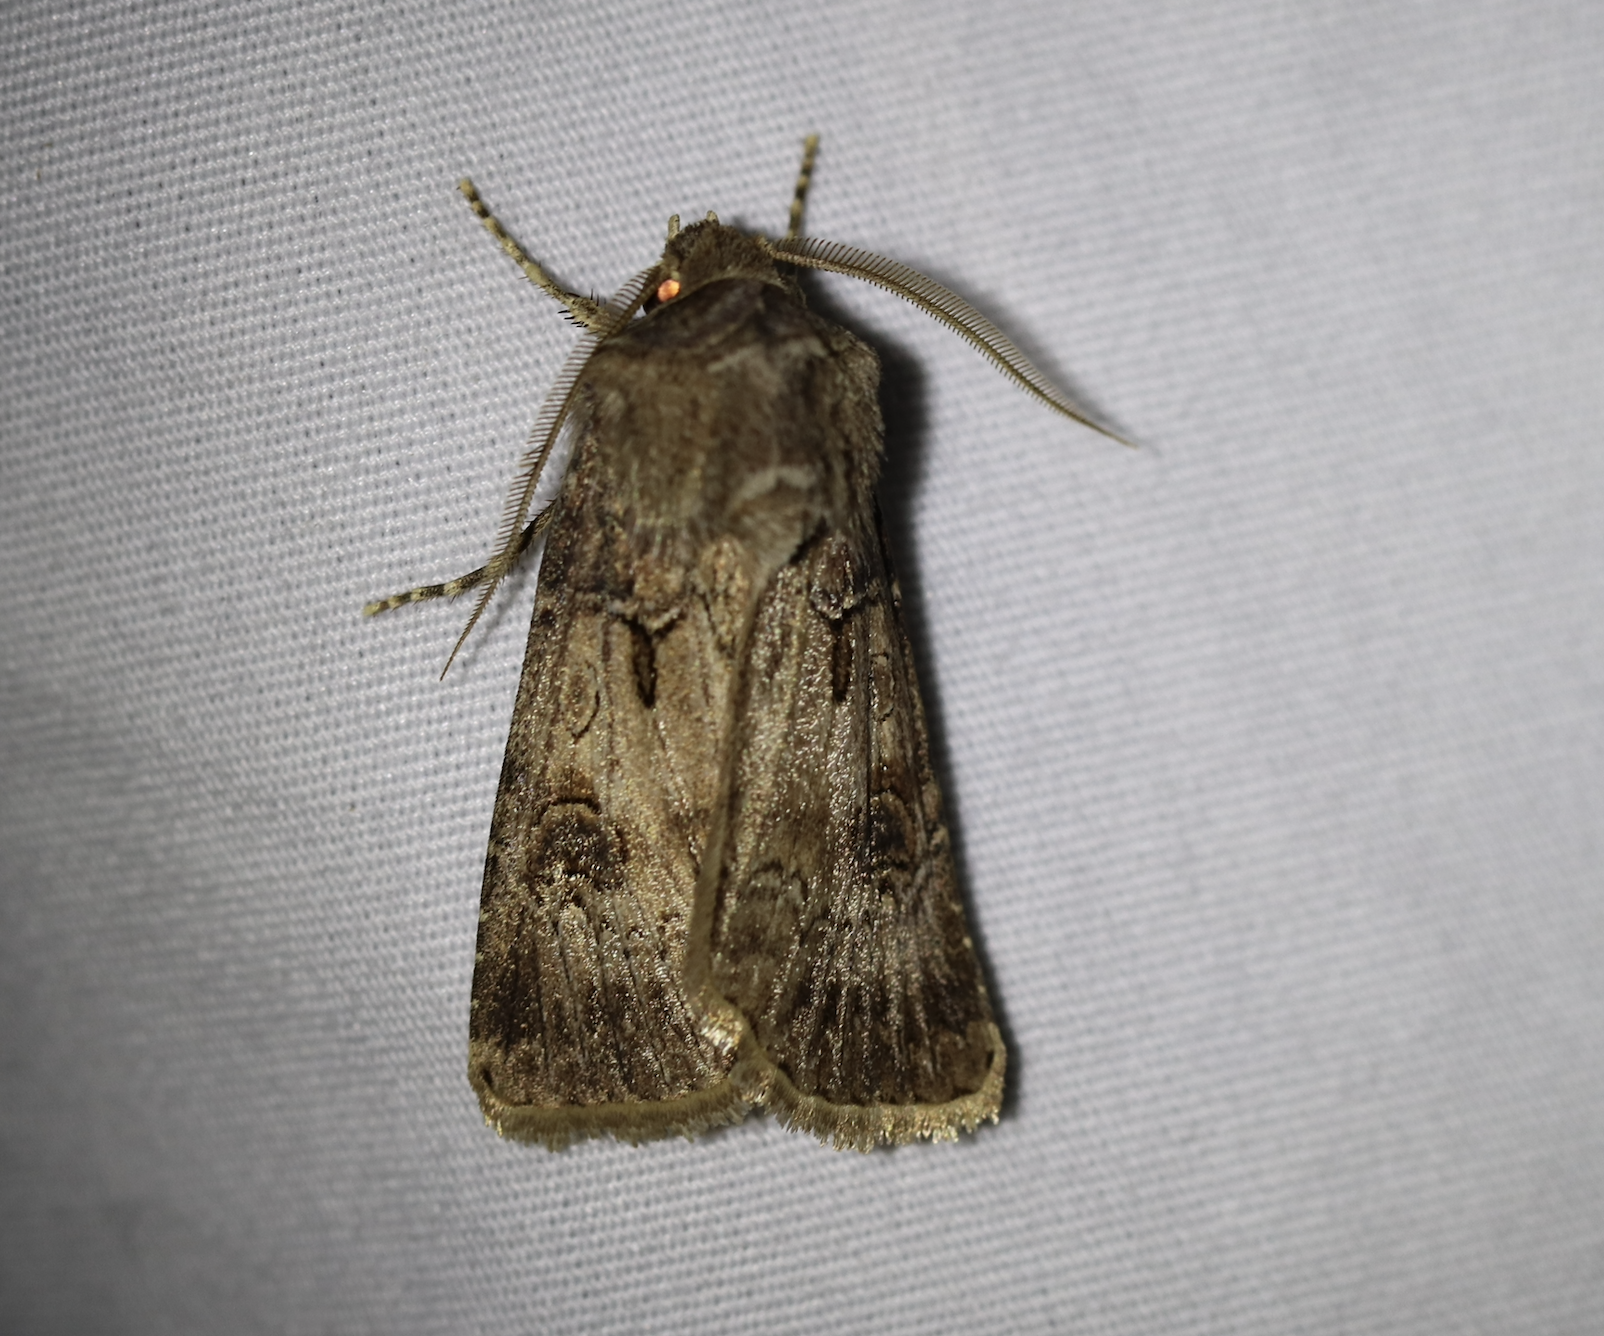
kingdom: Animalia
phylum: Arthropoda
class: Insecta
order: Lepidoptera
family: Noctuidae
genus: Agrotis
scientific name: Agrotis bigramma
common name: Great dart
